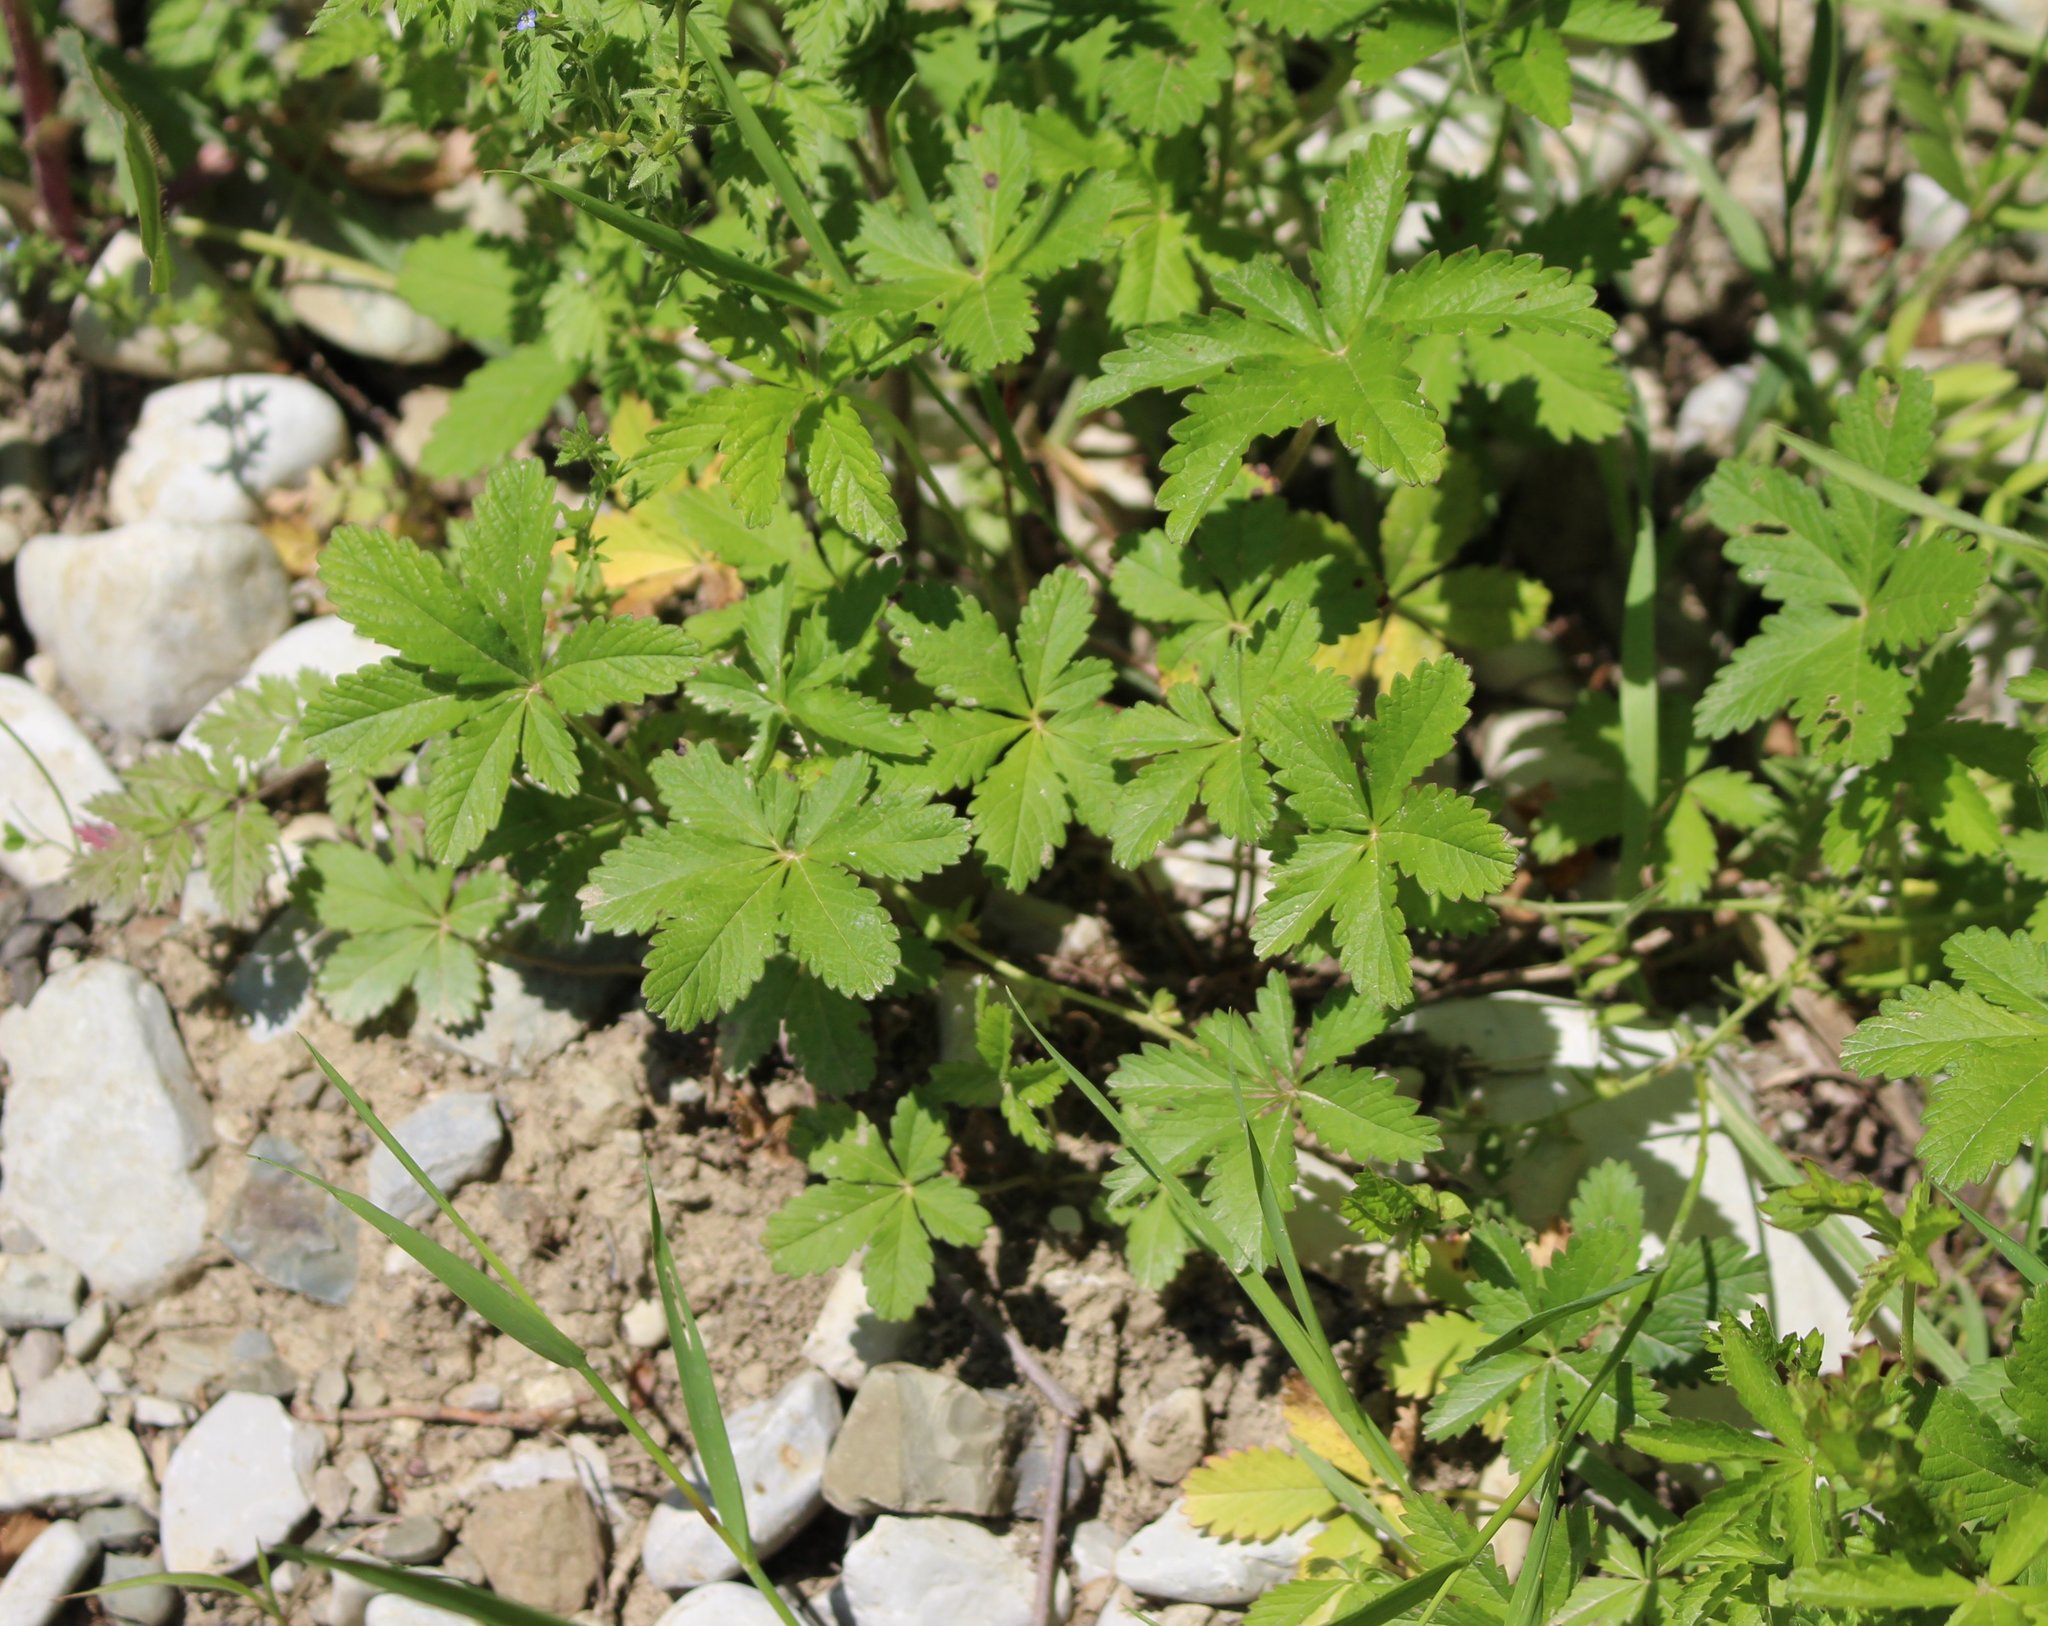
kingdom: Plantae
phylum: Tracheophyta
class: Magnoliopsida
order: Rosales
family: Rosaceae
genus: Potentilla
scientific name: Potentilla reptans
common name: Creeping cinquefoil
